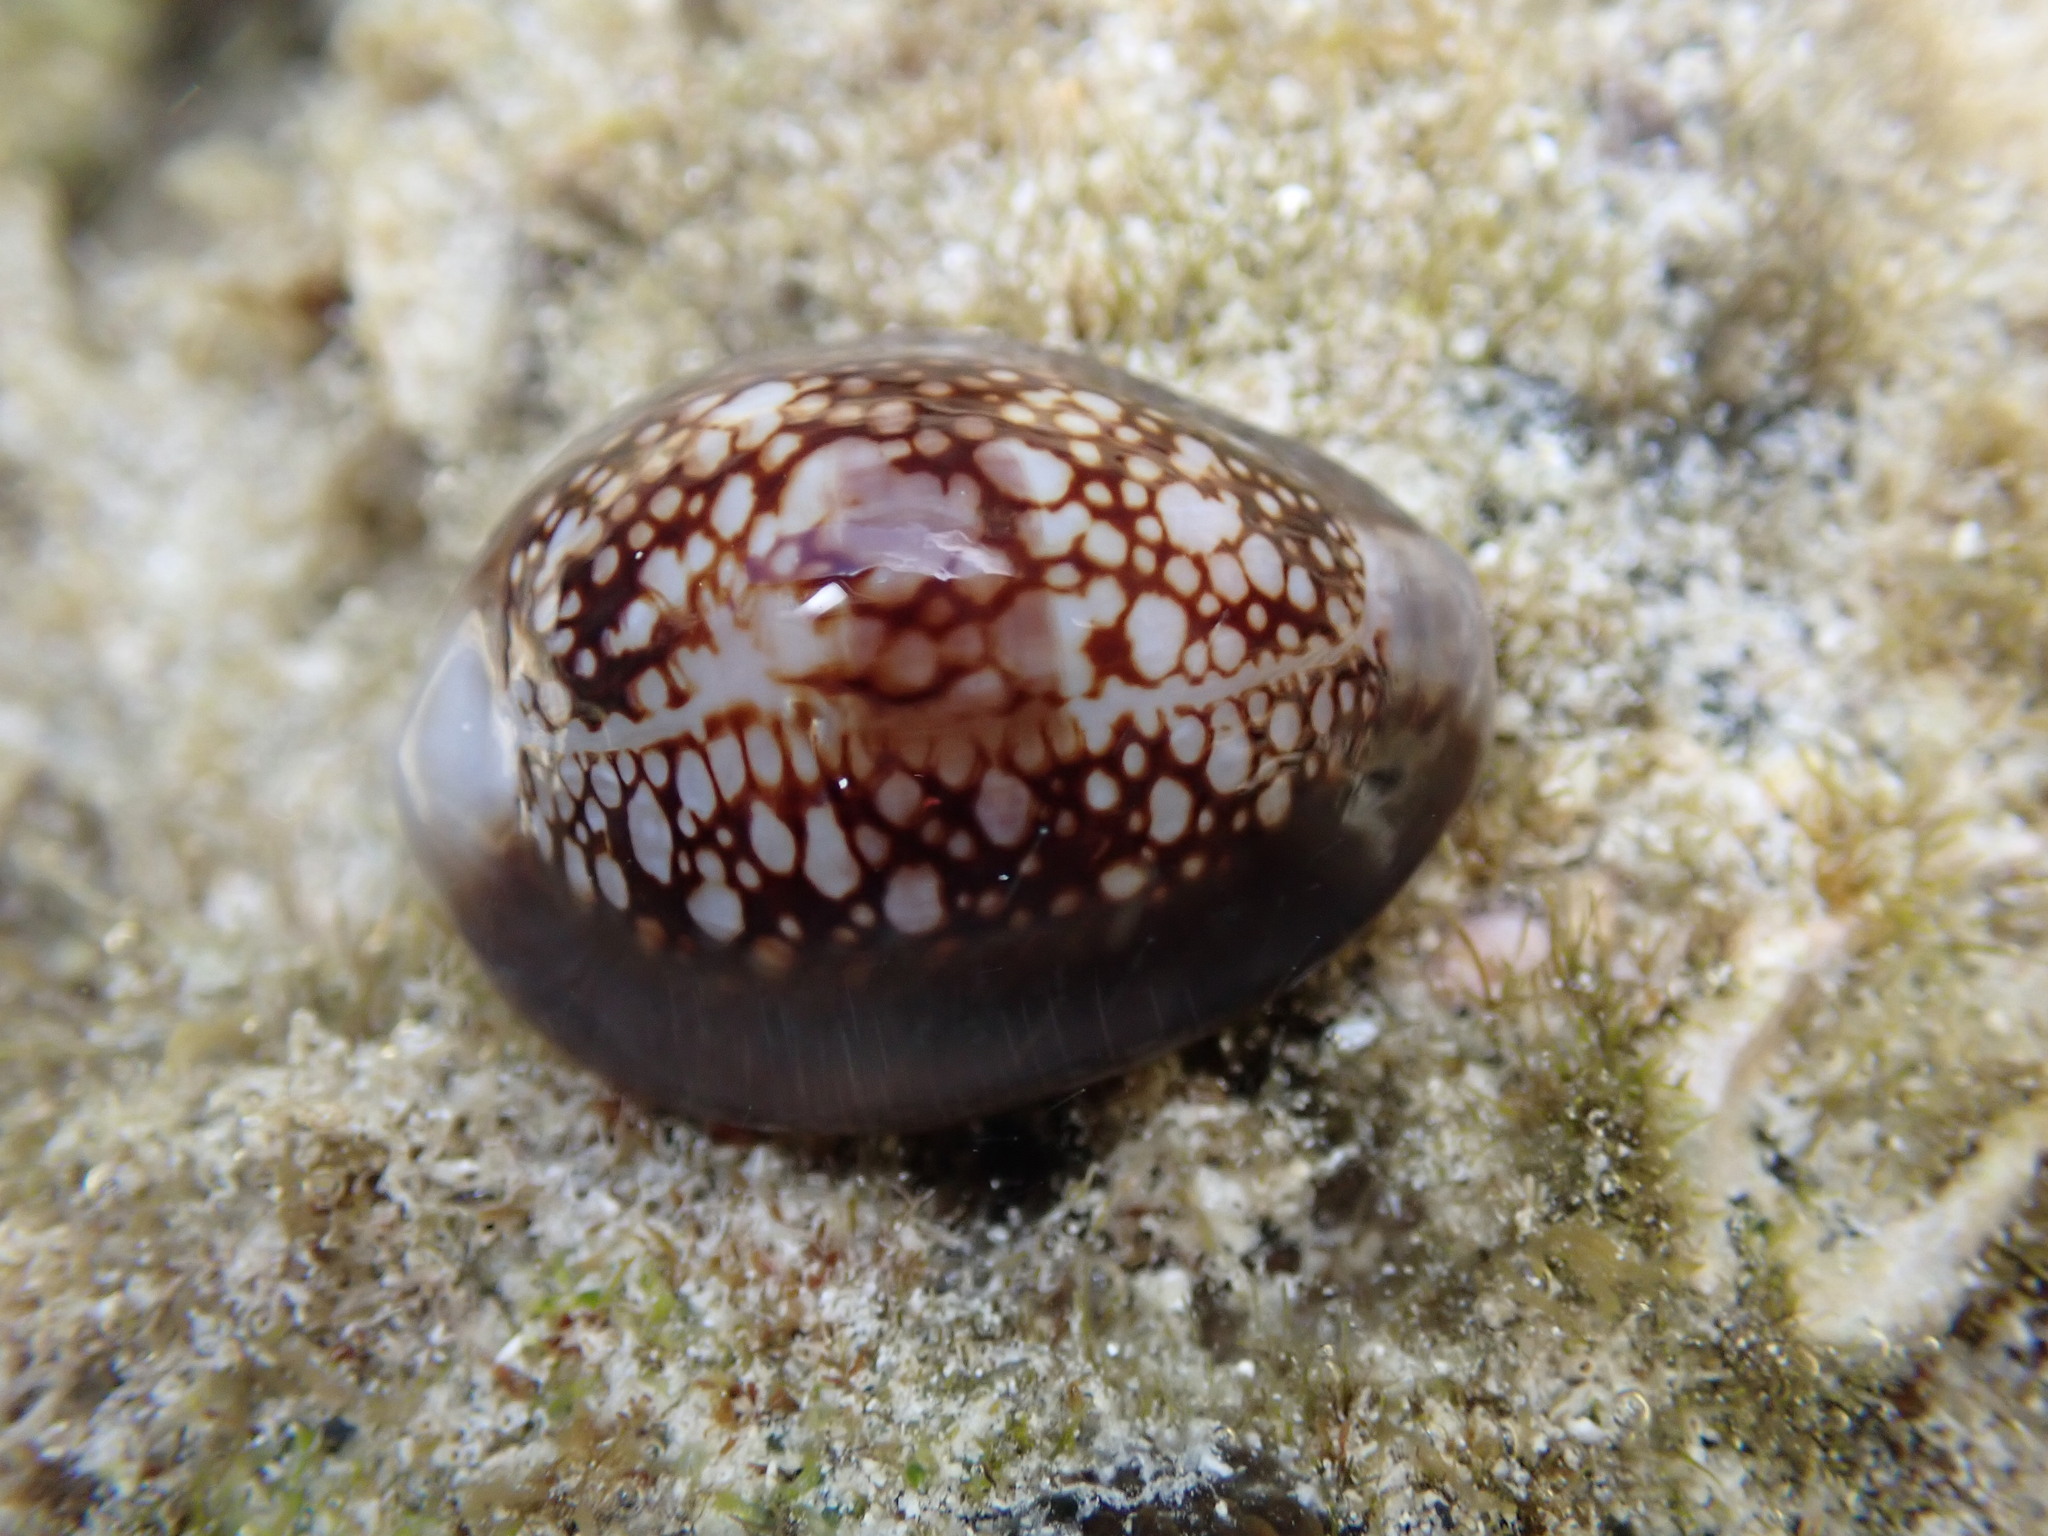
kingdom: Animalia
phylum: Mollusca
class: Gastropoda
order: Littorinimorpha
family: Cypraeidae
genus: Monetaria
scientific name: Monetaria caputophidii
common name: Snake's head cowry
